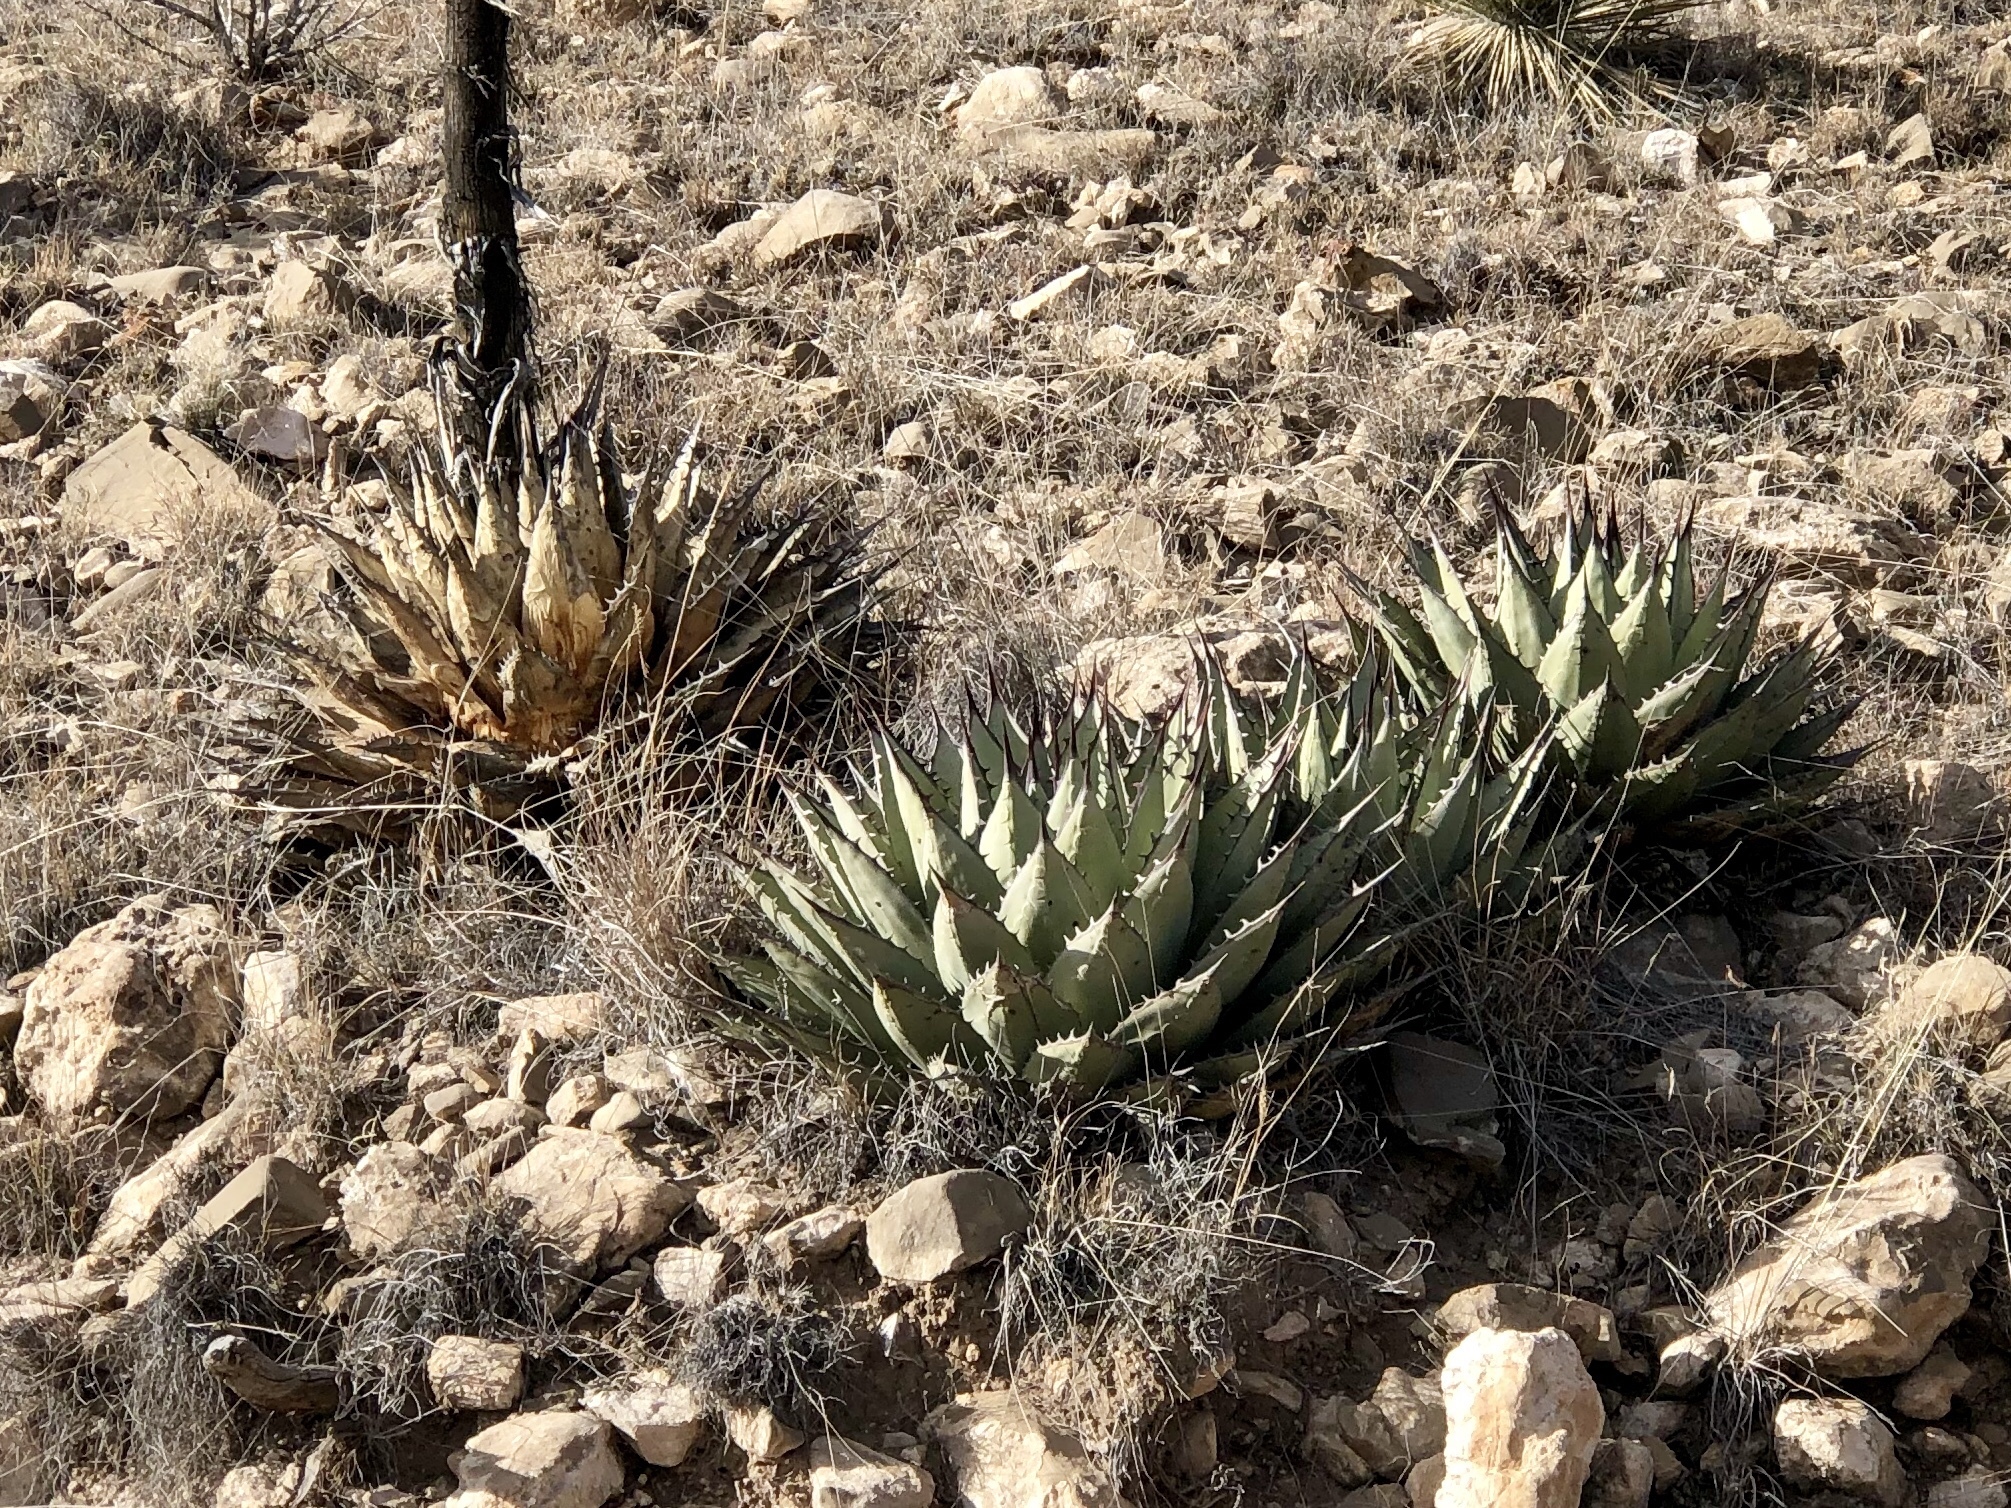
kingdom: Plantae
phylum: Tracheophyta
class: Liliopsida
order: Asparagales
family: Asparagaceae
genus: Agave
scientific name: Agave parryi
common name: Parry's agave
